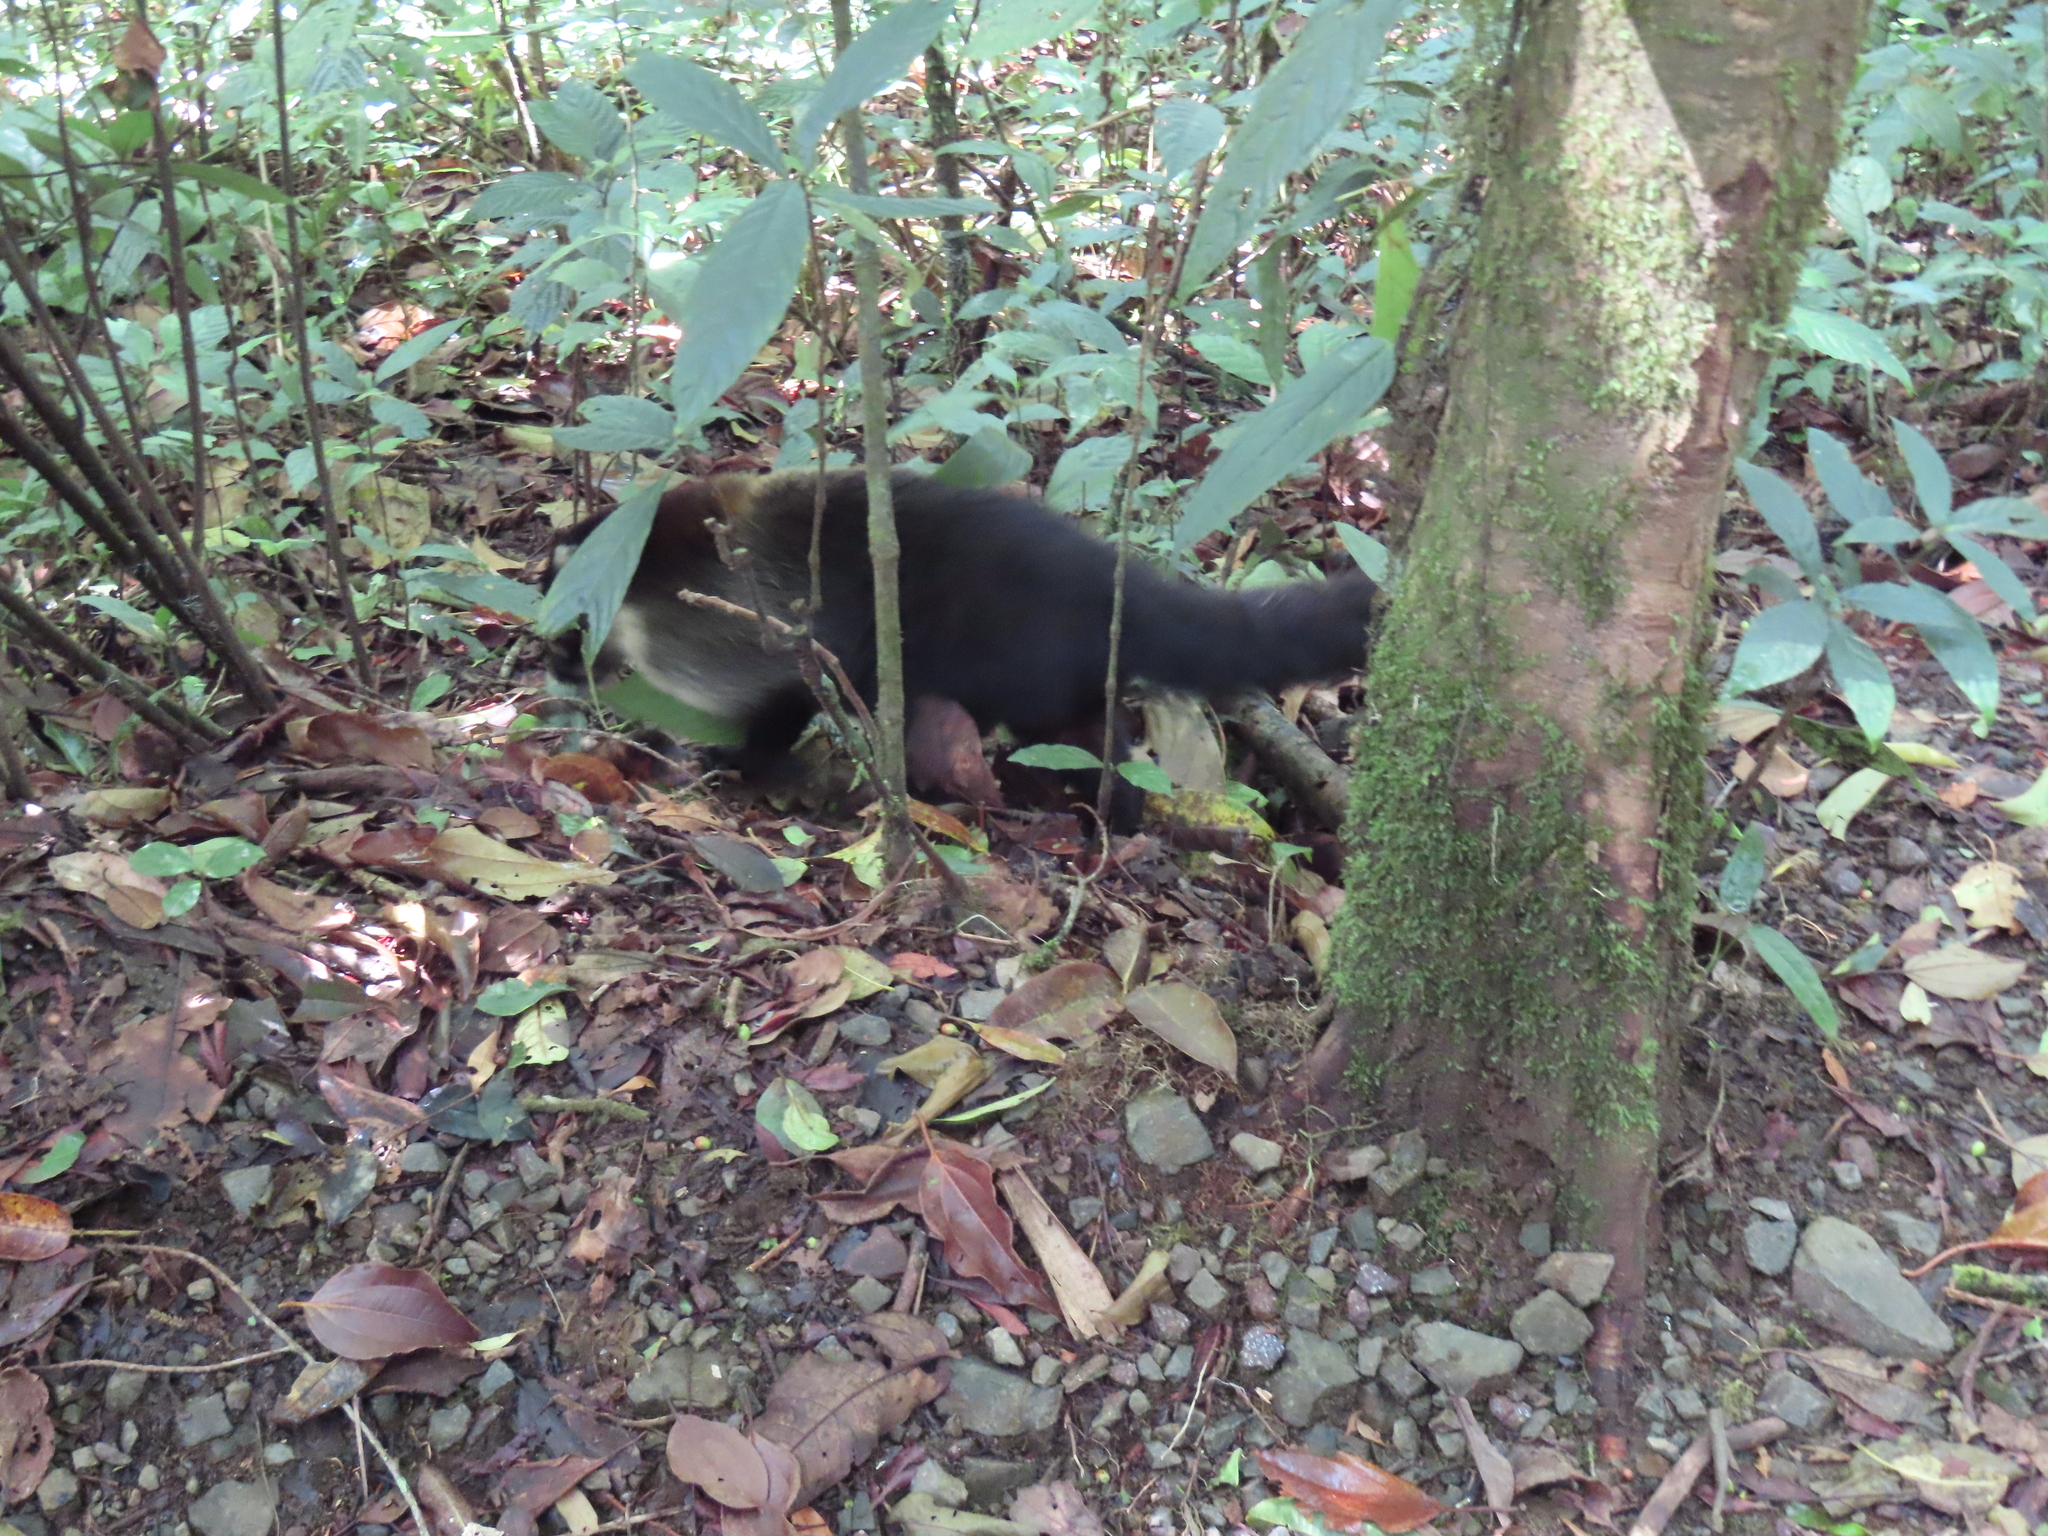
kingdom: Animalia
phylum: Chordata
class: Mammalia
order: Carnivora
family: Procyonidae
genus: Nasua
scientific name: Nasua narica
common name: White-nosed coati
